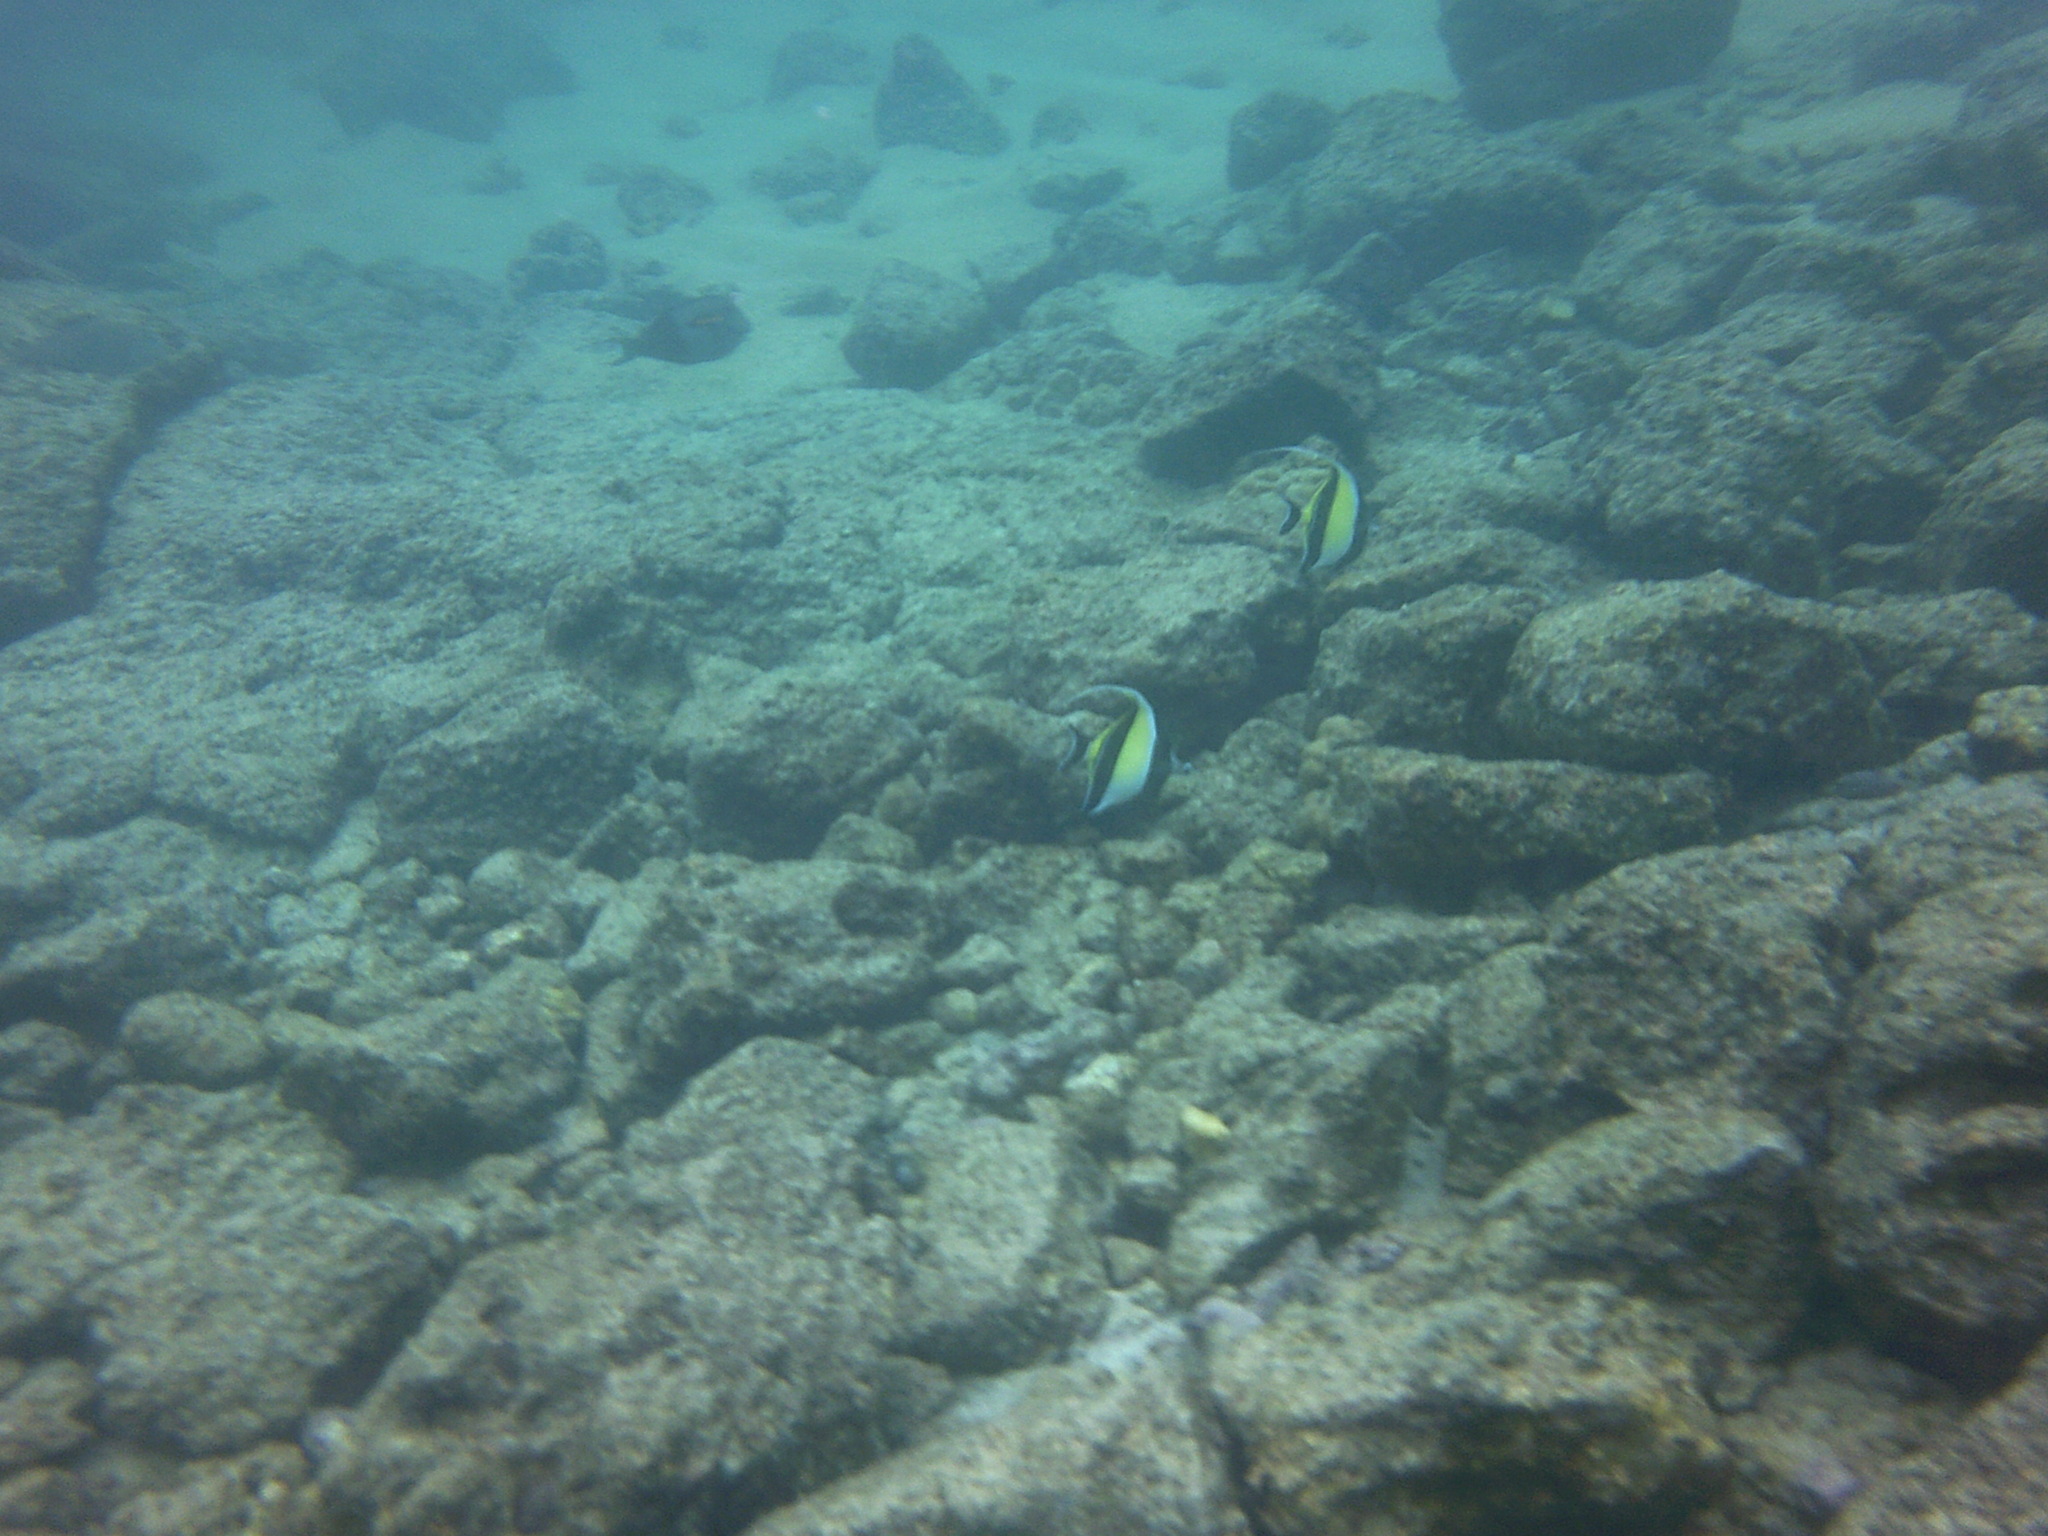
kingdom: Animalia
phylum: Chordata
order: Perciformes
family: Zanclidae
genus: Zanclus
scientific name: Zanclus cornutus
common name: Moorish idol
